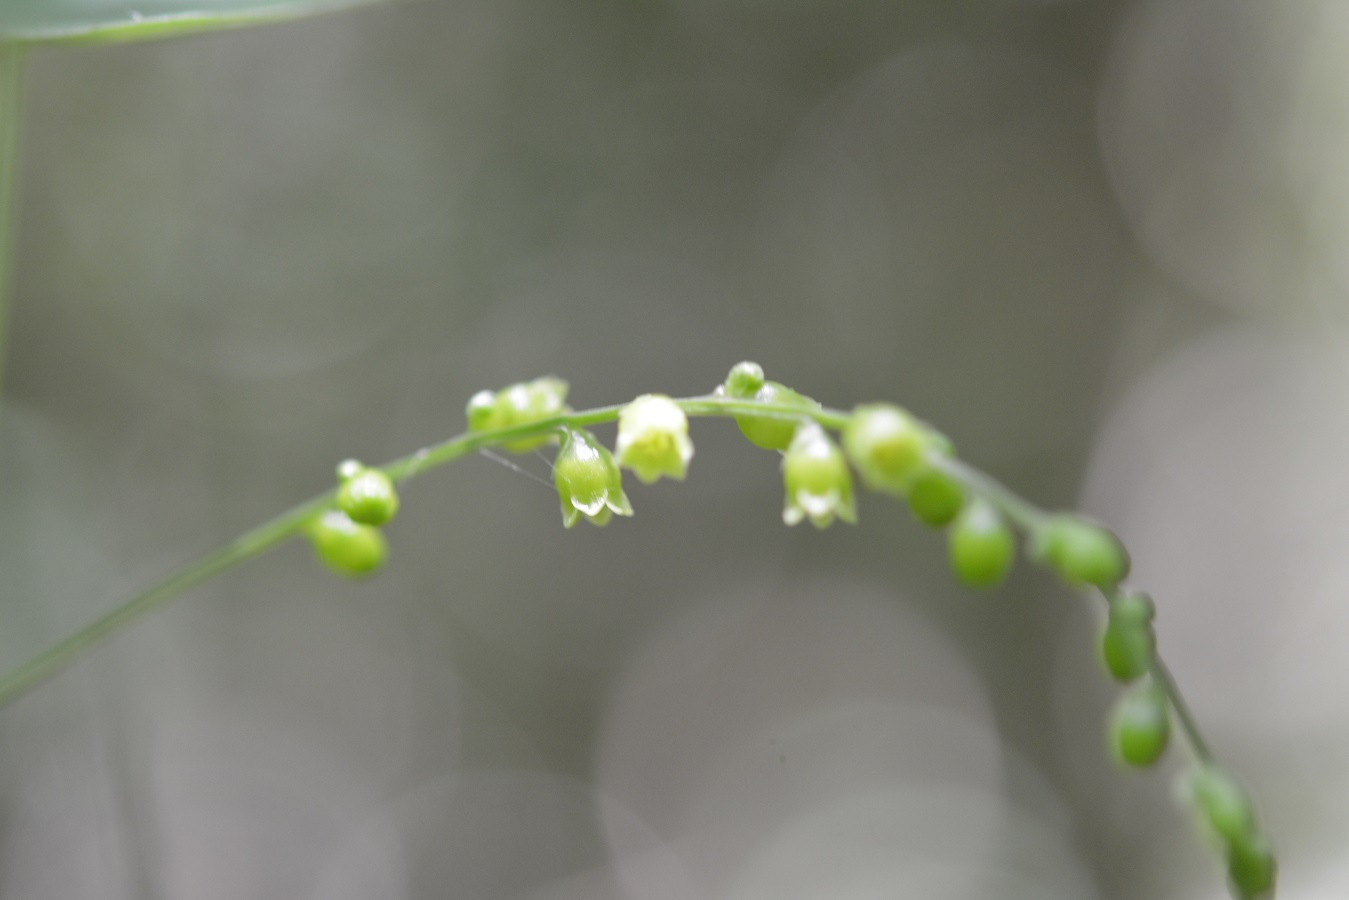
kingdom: Plantae
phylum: Tracheophyta
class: Liliopsida
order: Dioscoreales
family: Dioscoreaceae
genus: Dioscorea
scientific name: Dioscorea spiculiflora
